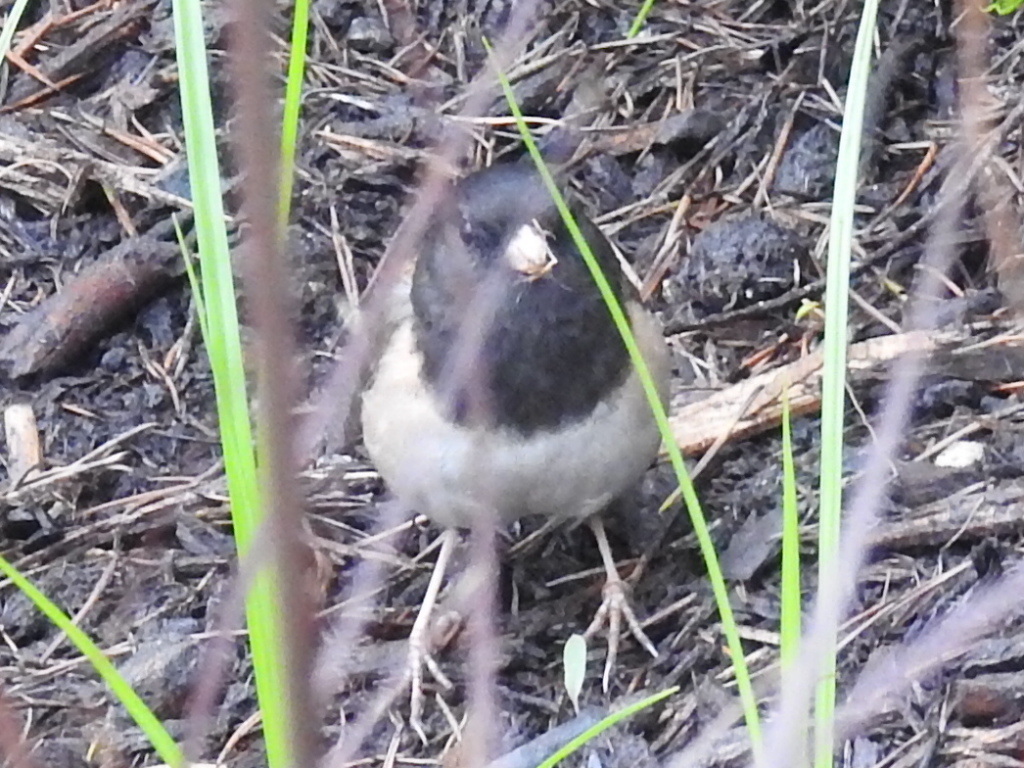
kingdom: Animalia
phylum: Chordata
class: Aves
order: Passeriformes
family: Passerellidae
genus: Junco
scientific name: Junco hyemalis
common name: Dark-eyed junco
